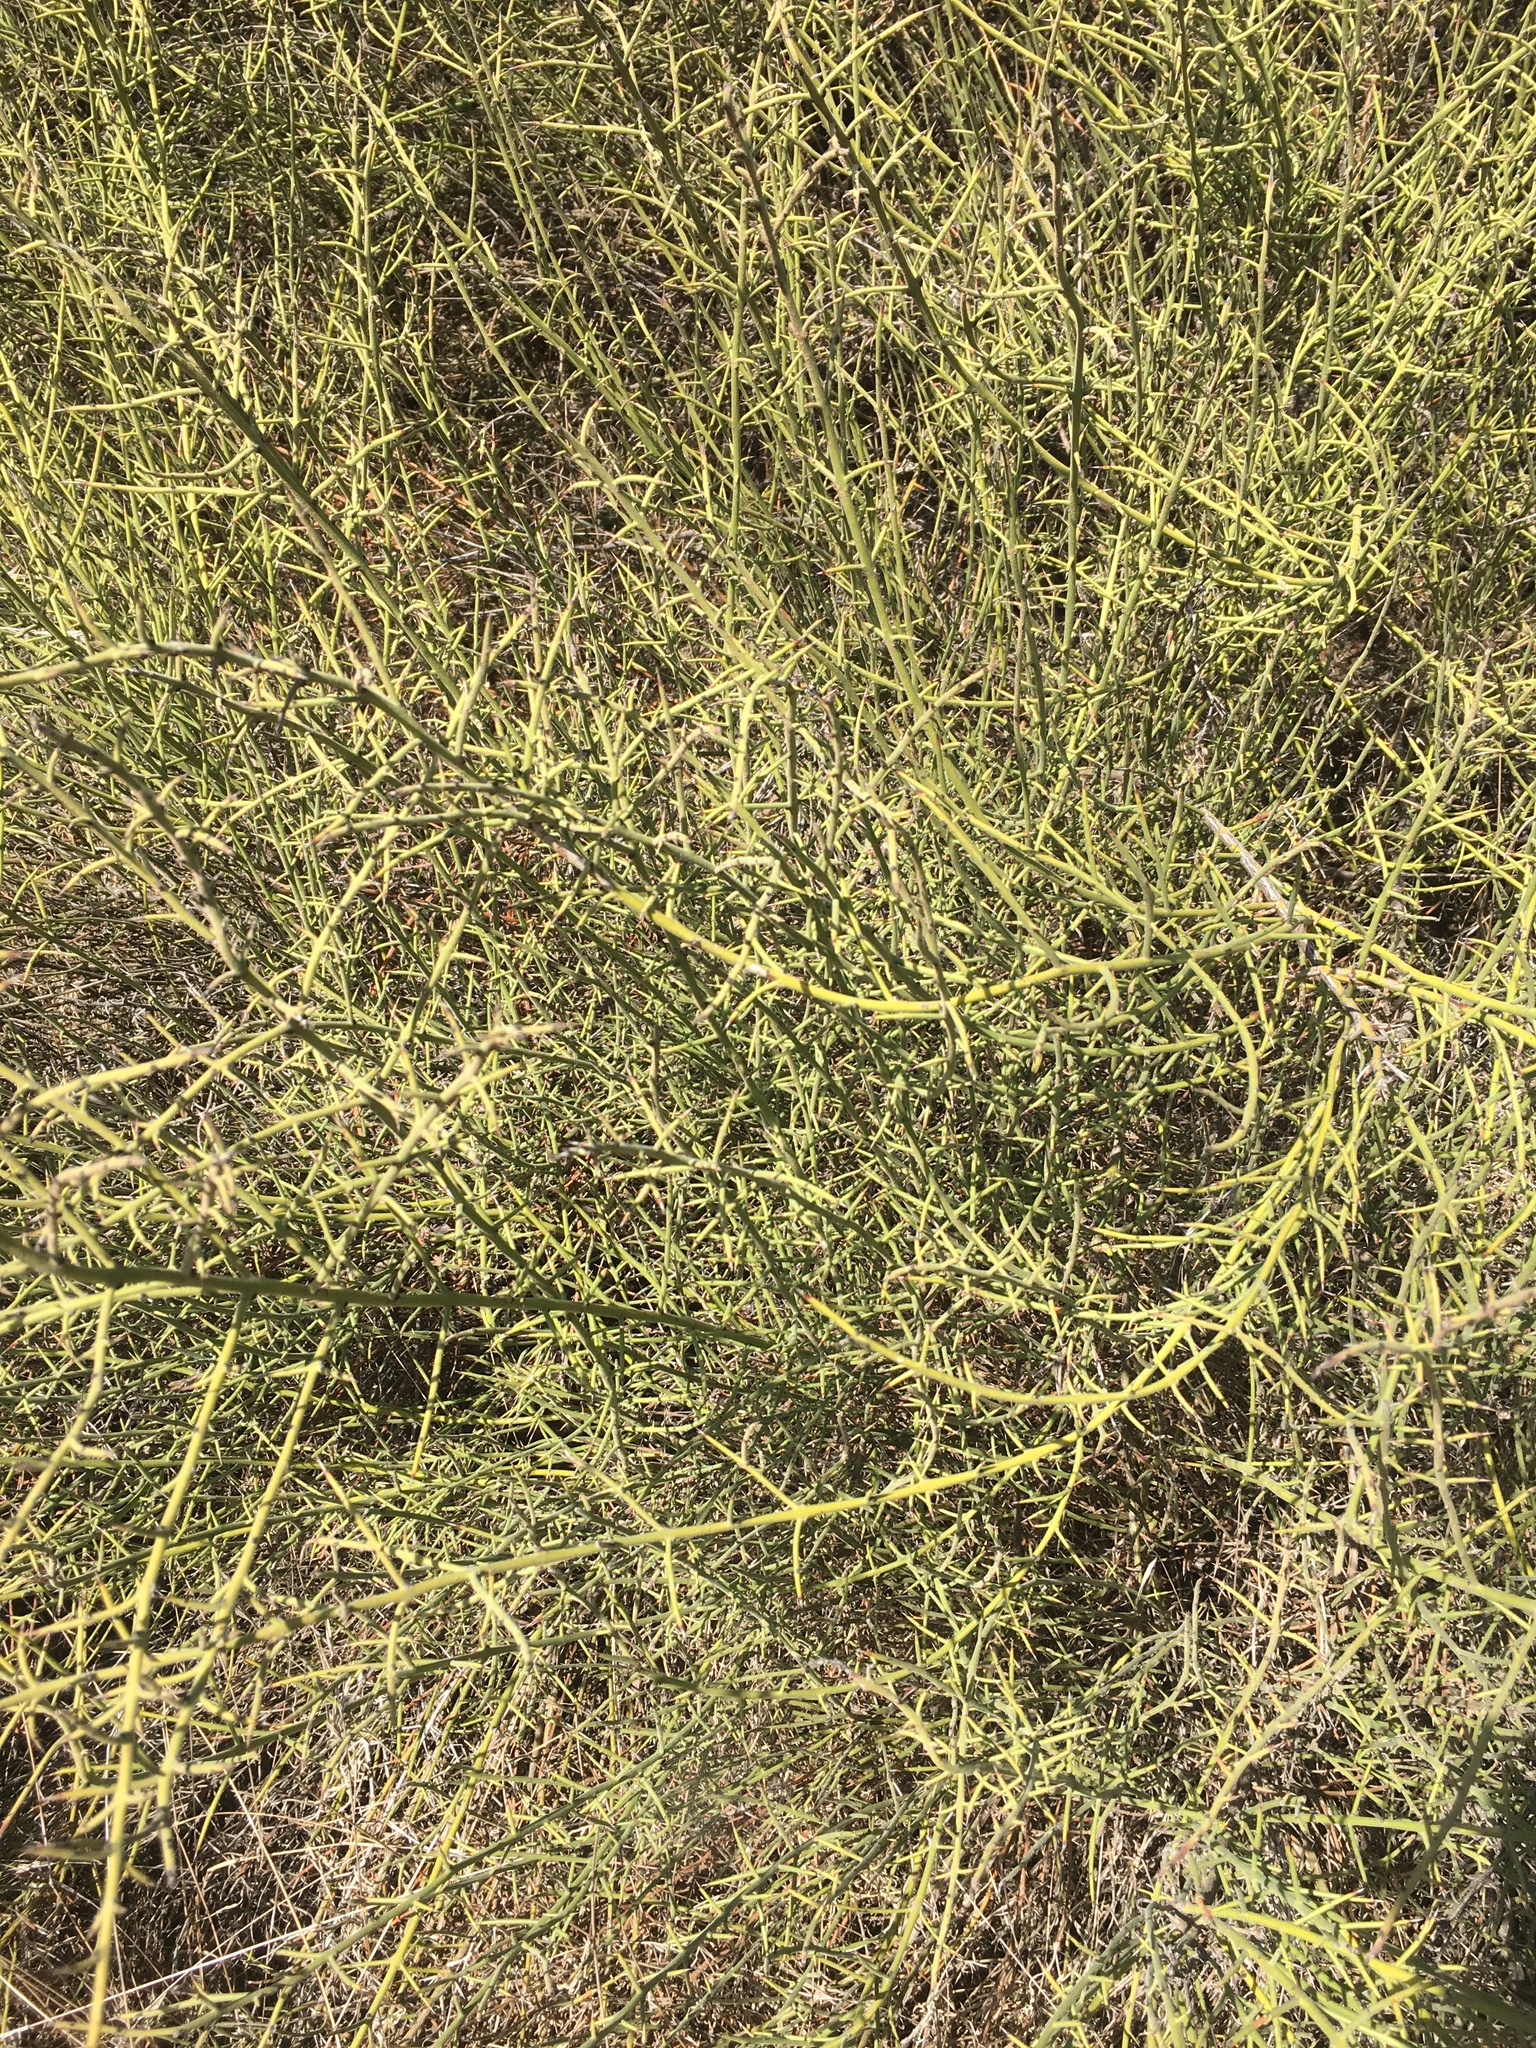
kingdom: Plantae
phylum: Tracheophyta
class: Magnoliopsida
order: Rosales
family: Rhamnaceae
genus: Adolphia
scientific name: Adolphia californica
